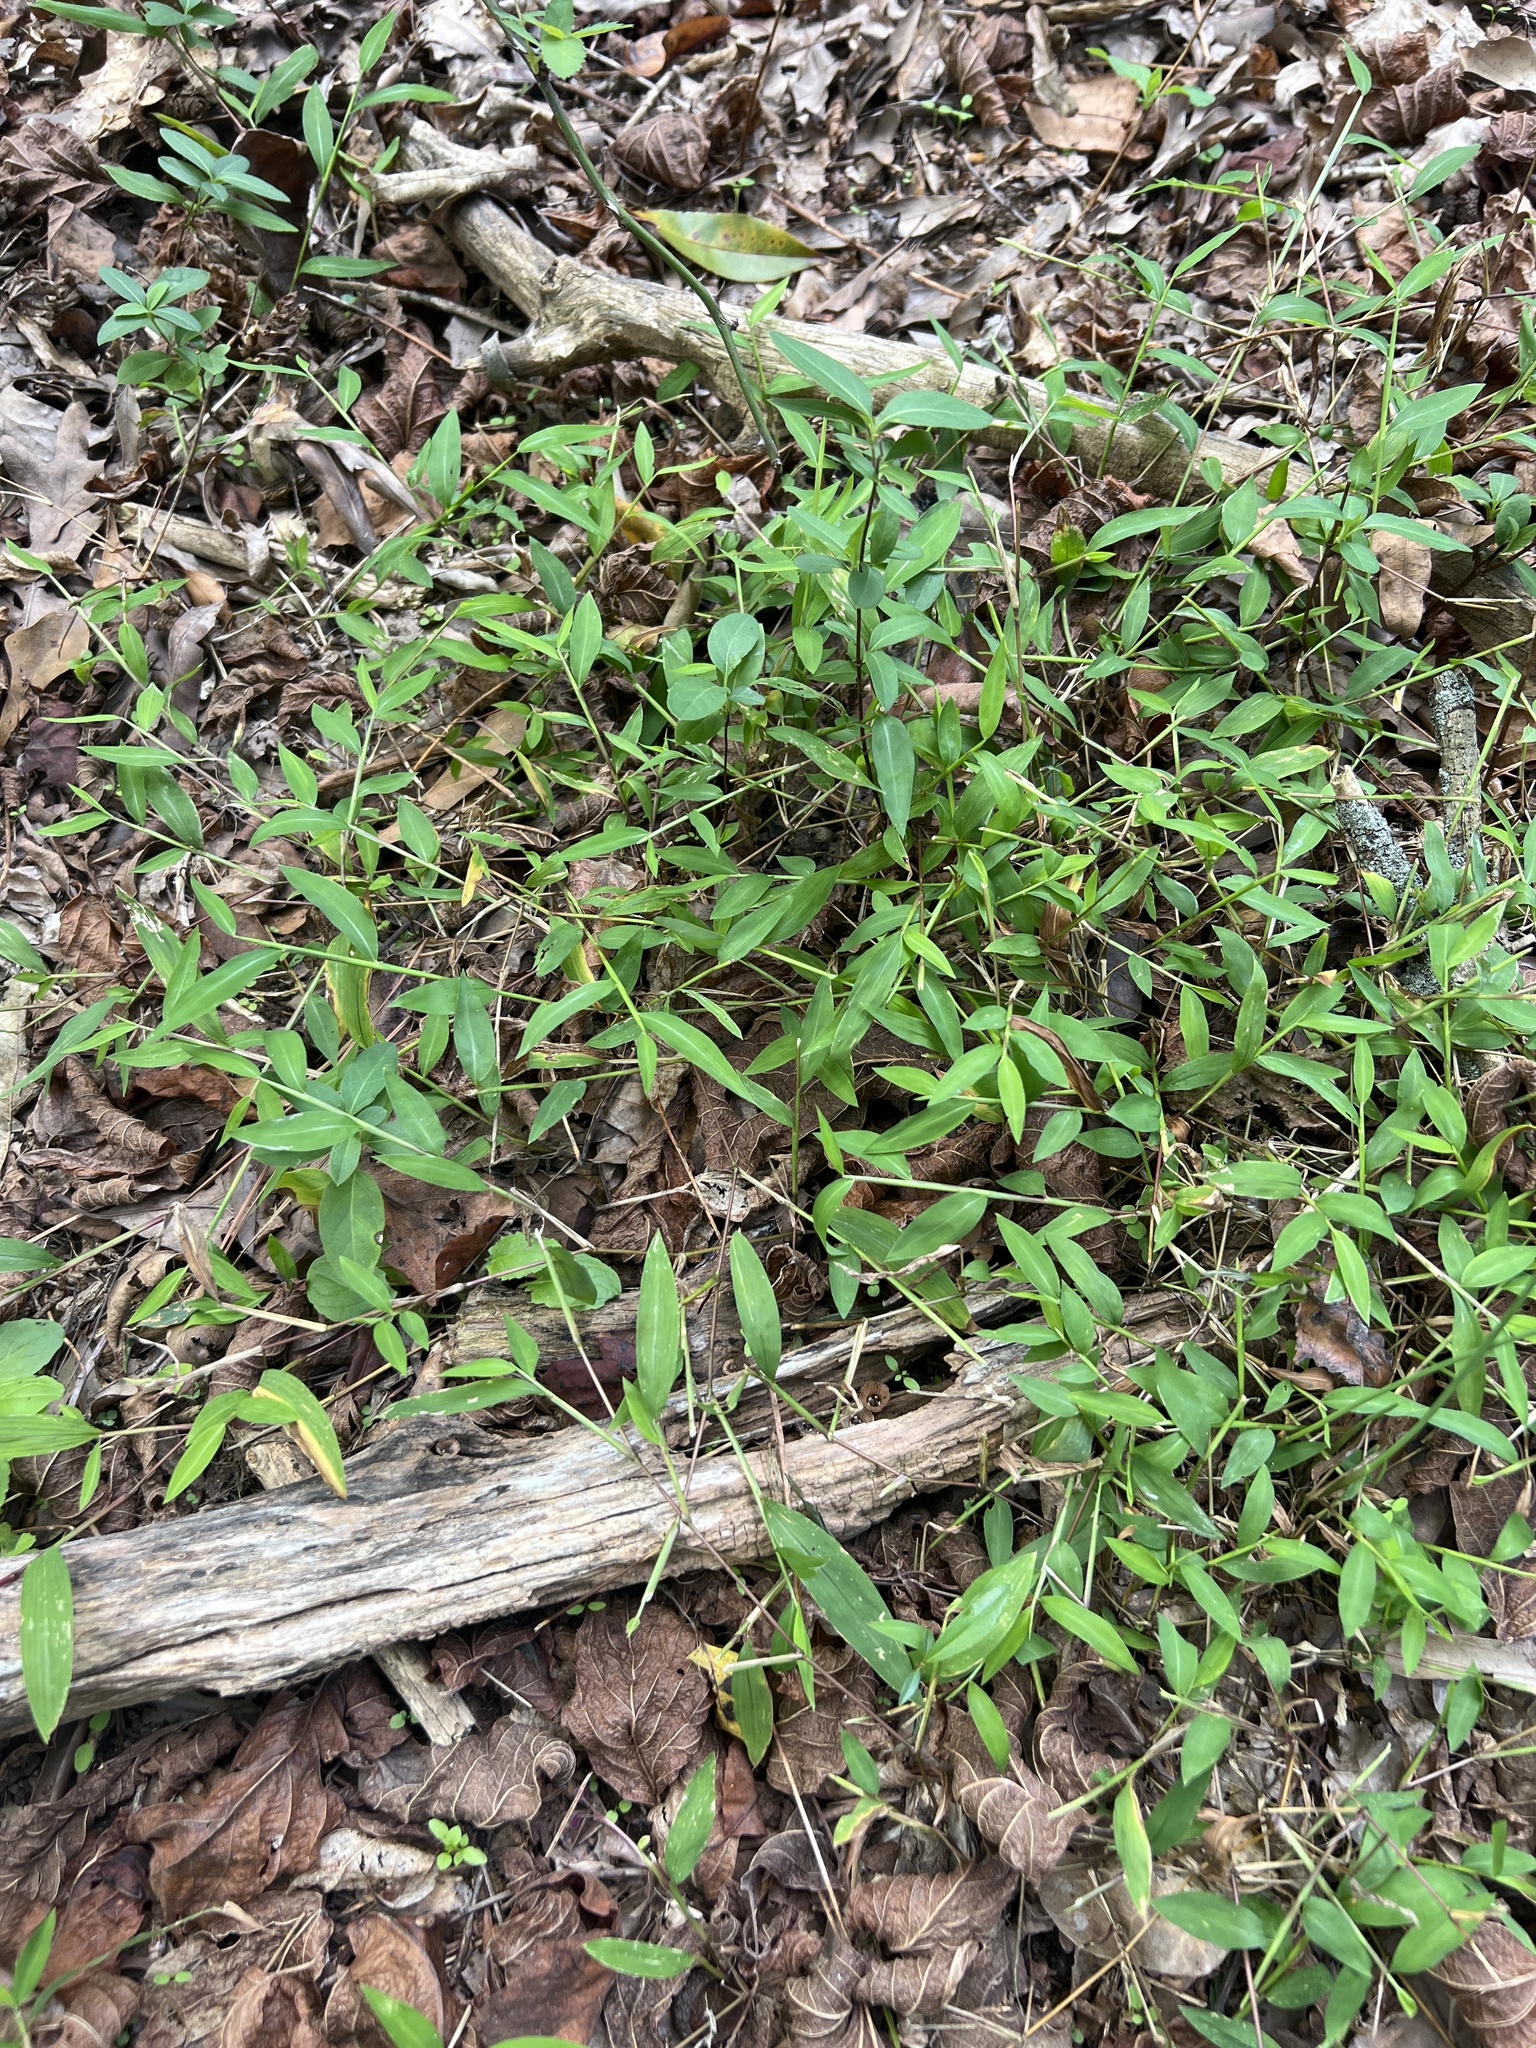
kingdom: Plantae
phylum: Tracheophyta
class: Liliopsida
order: Poales
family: Poaceae
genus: Microstegium
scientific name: Microstegium vimineum
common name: Japanese stiltgrass
